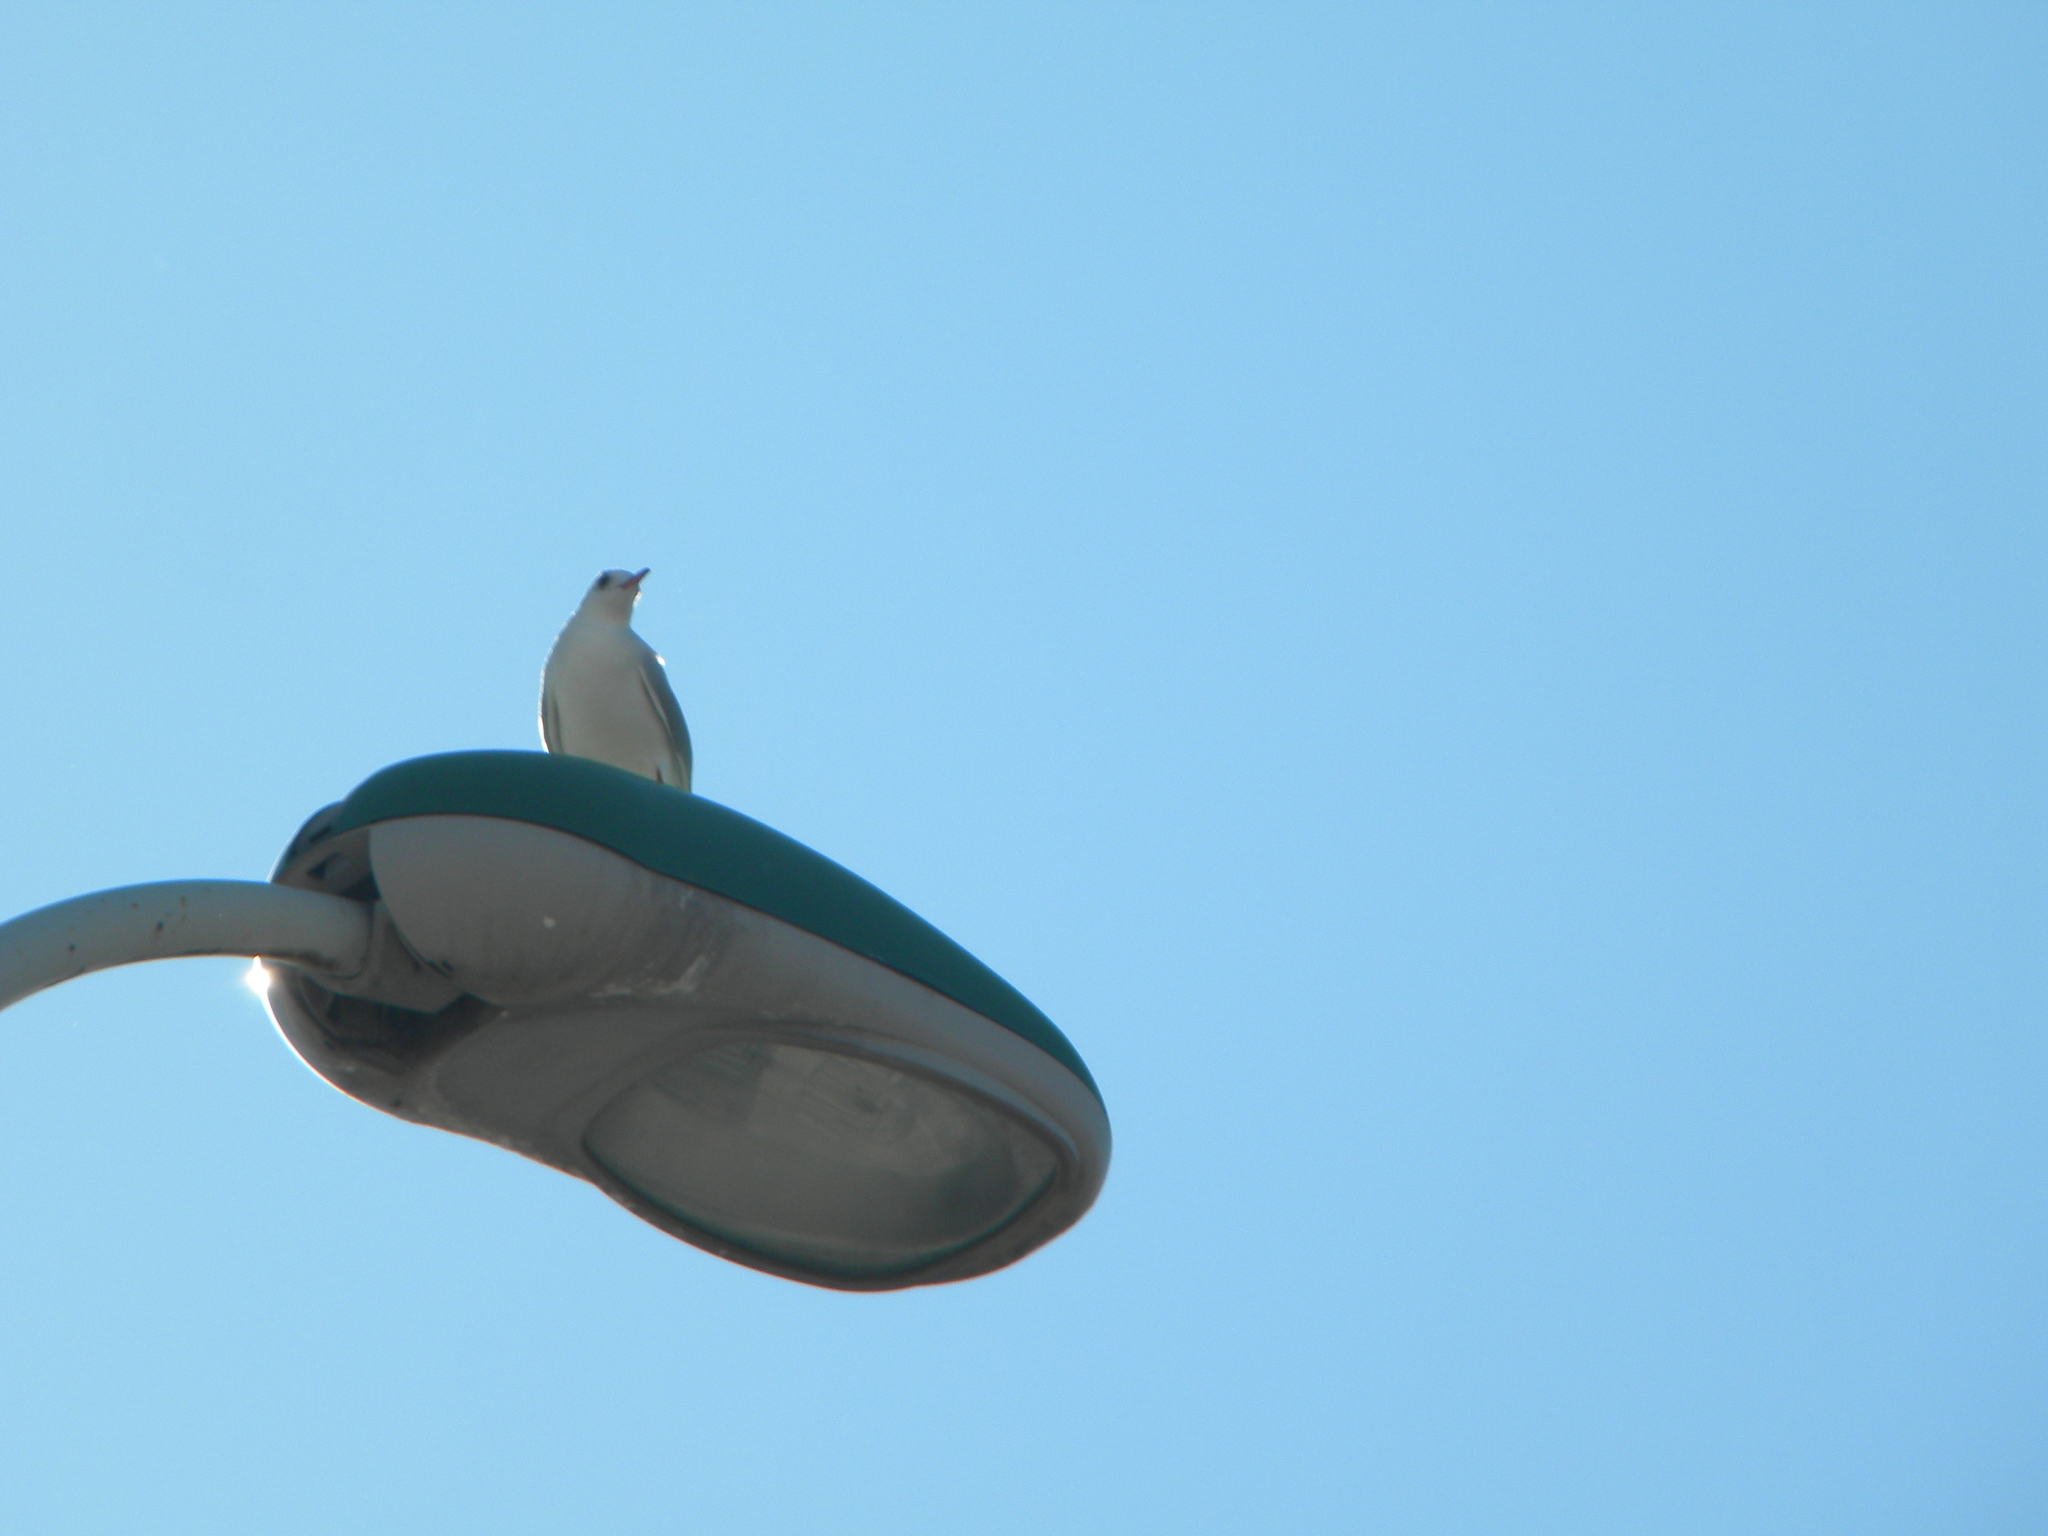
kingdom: Animalia
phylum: Chordata
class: Aves
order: Charadriiformes
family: Laridae
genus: Chroicocephalus
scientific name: Chroicocephalus ridibundus
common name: Black-headed gull
